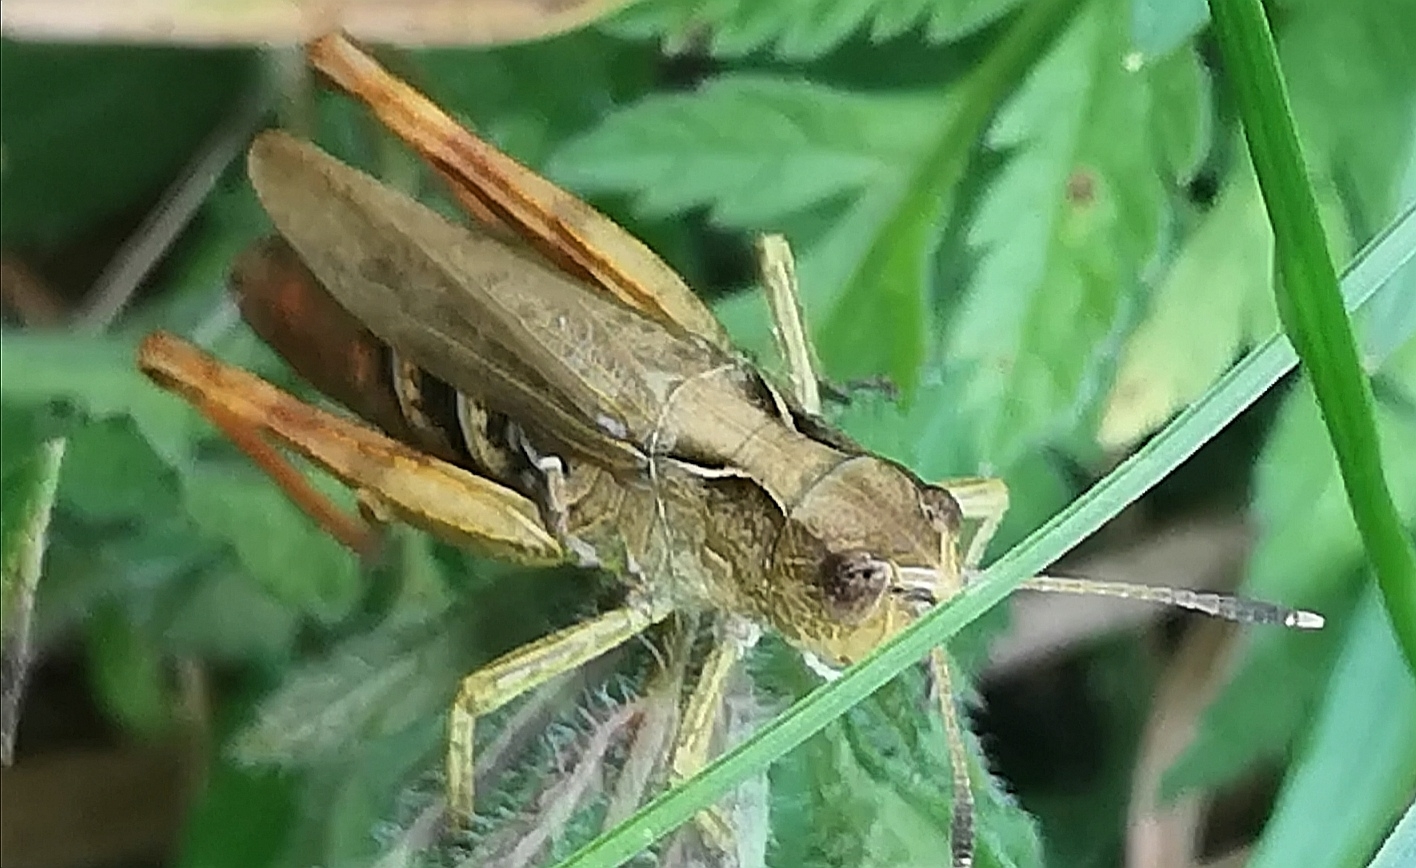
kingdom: Animalia
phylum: Arthropoda
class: Insecta
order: Orthoptera
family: Acrididae
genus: Gomphocerippus
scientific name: Gomphocerippus rufus
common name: Rufous grasshopper
